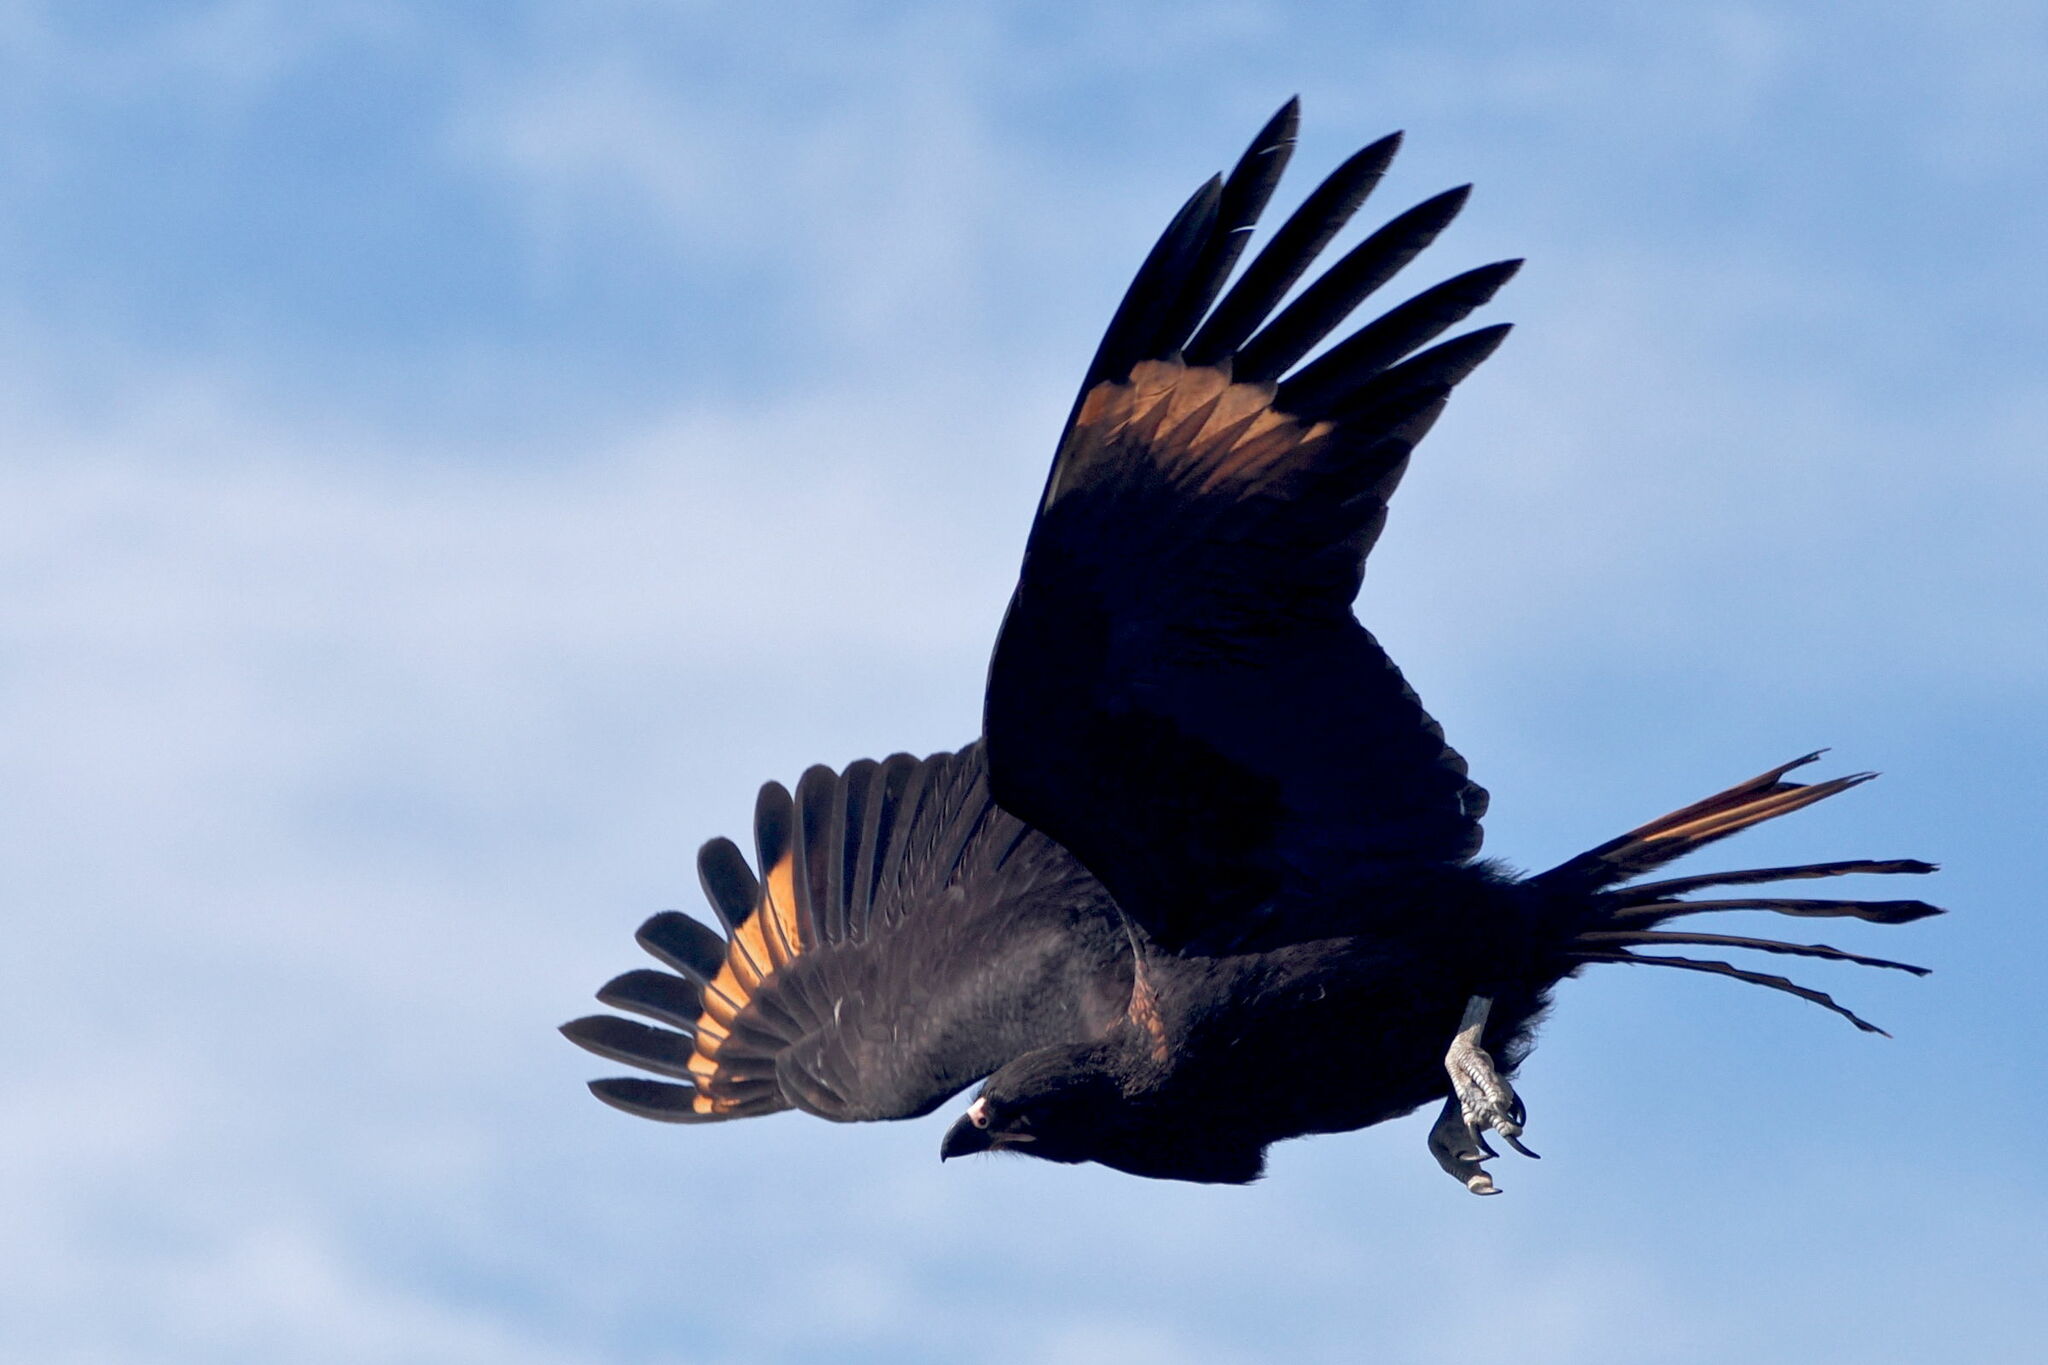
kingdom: Animalia
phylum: Chordata
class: Aves
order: Falconiformes
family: Falconidae
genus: Daptrius
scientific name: Daptrius
